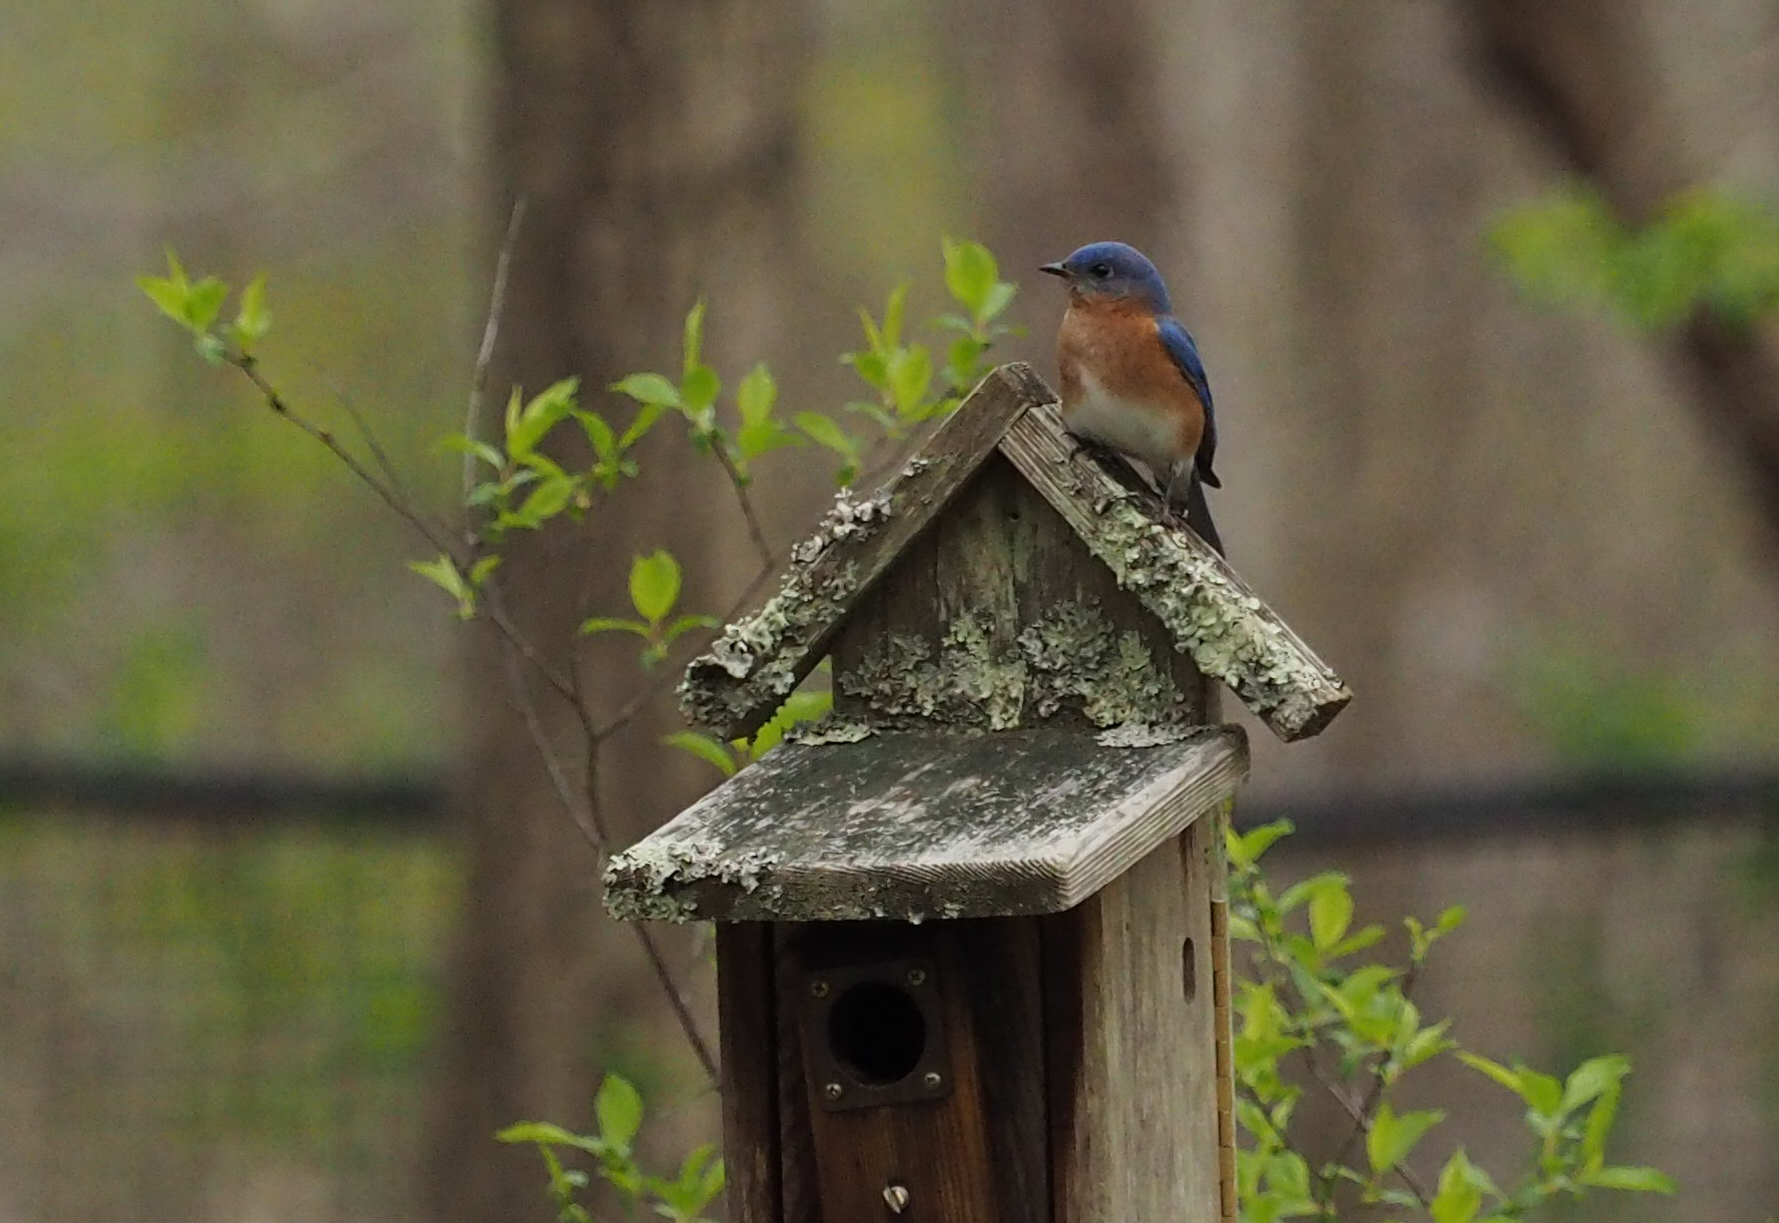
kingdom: Animalia
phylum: Chordata
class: Aves
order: Passeriformes
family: Turdidae
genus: Sialia
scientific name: Sialia sialis
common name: Eastern bluebird
